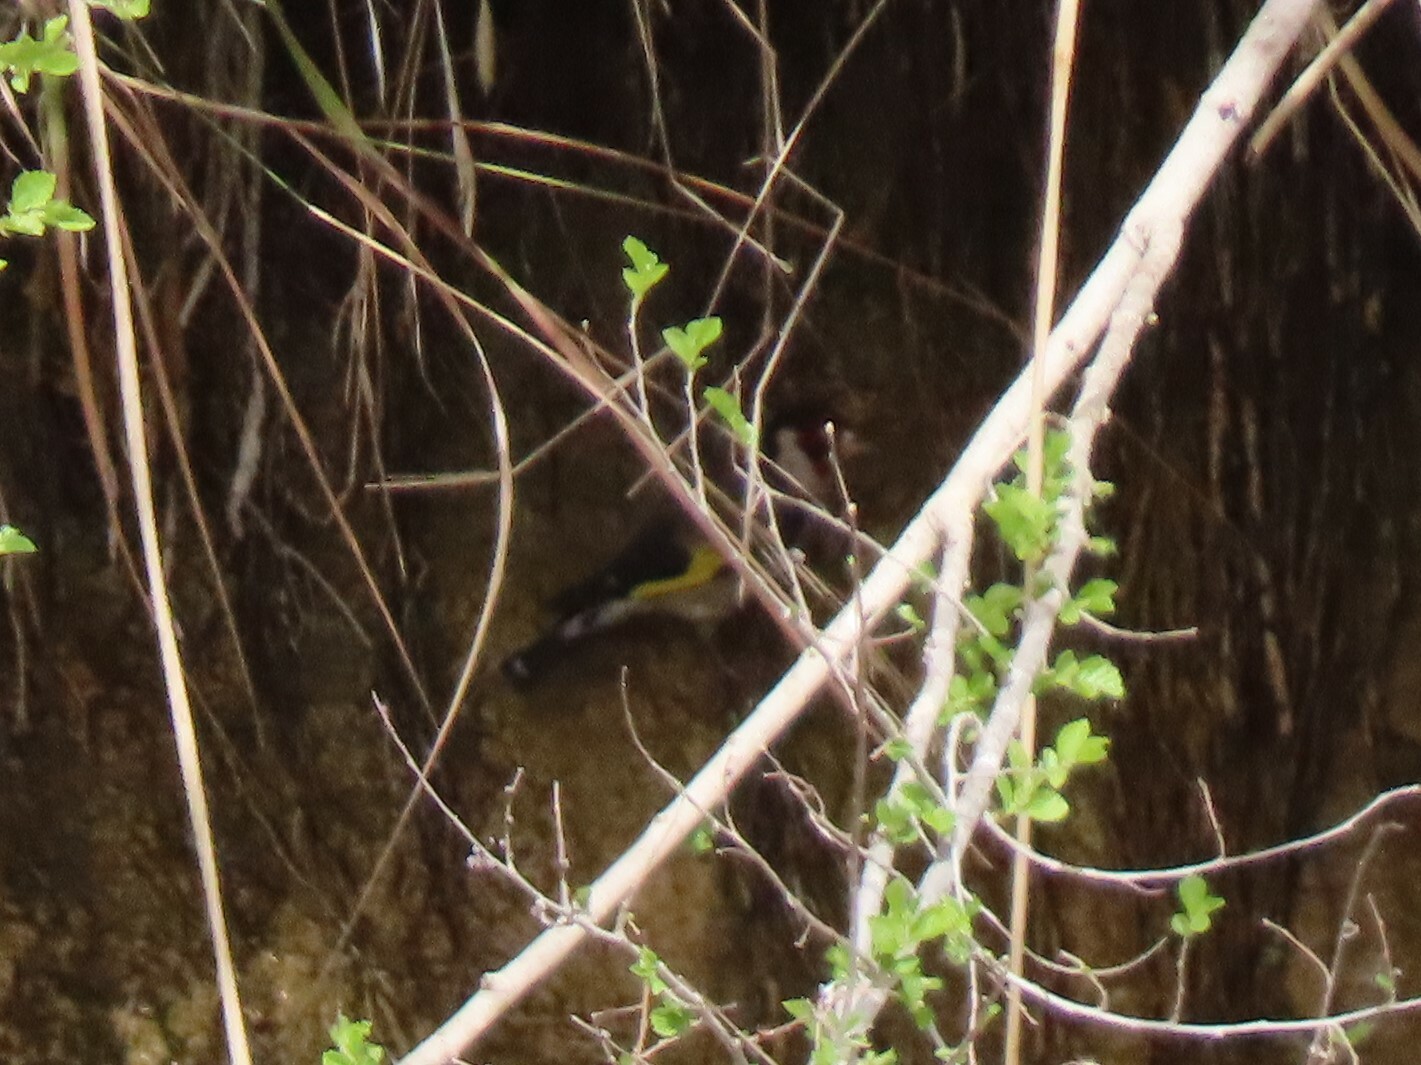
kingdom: Animalia
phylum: Chordata
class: Aves
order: Passeriformes
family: Fringillidae
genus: Carduelis
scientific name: Carduelis carduelis
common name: European goldfinch
